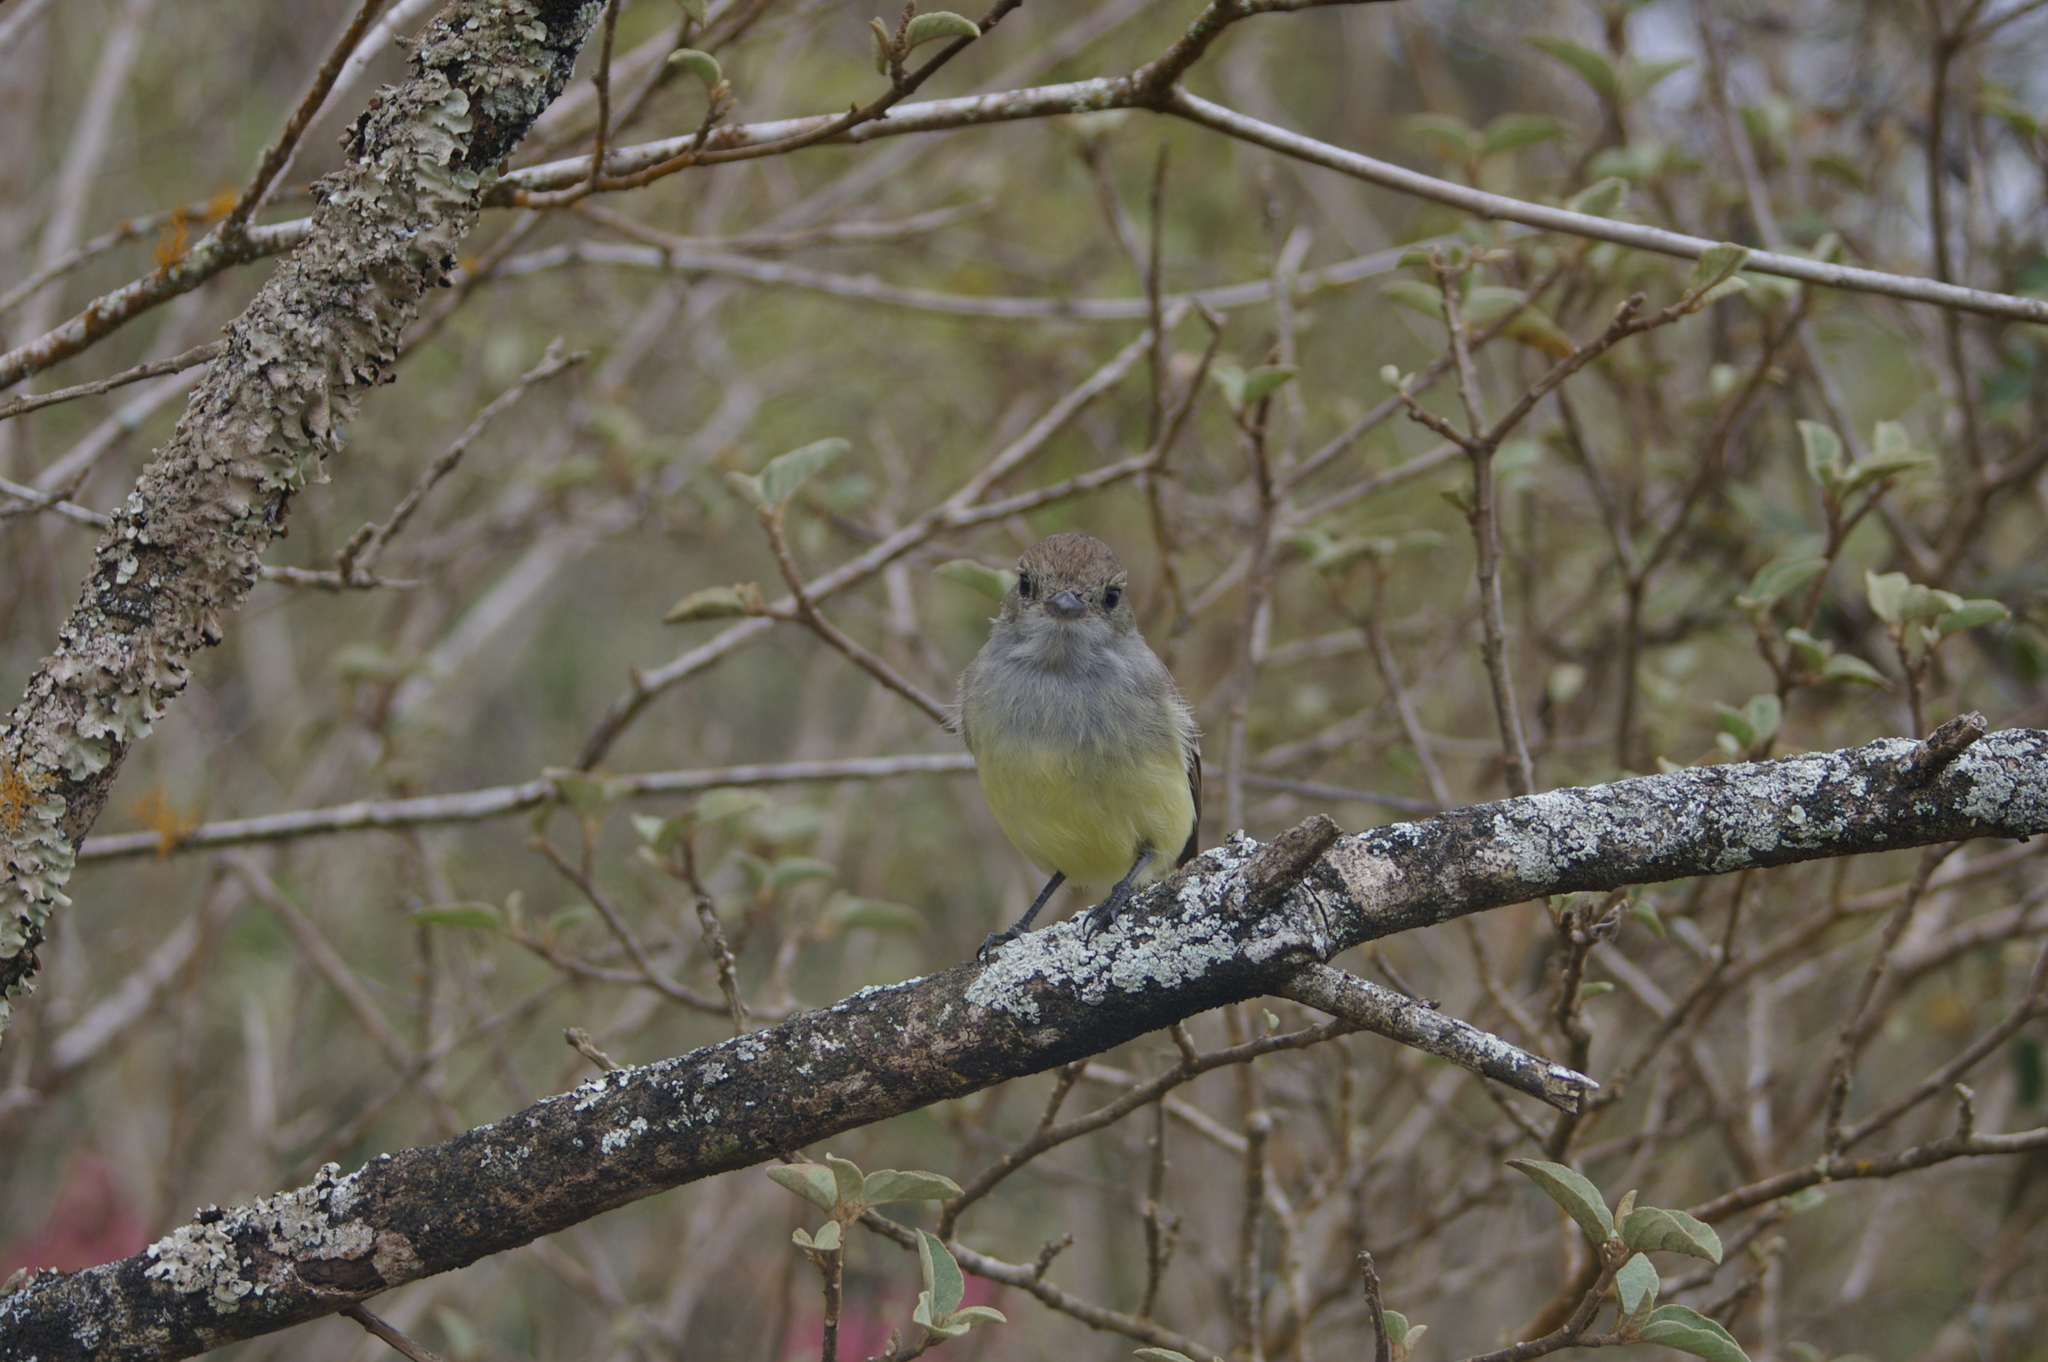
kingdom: Animalia
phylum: Chordata
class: Aves
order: Passeriformes
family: Tyrannidae
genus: Myiarchus
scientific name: Myiarchus magnirostris
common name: Galapagos flycatcher
